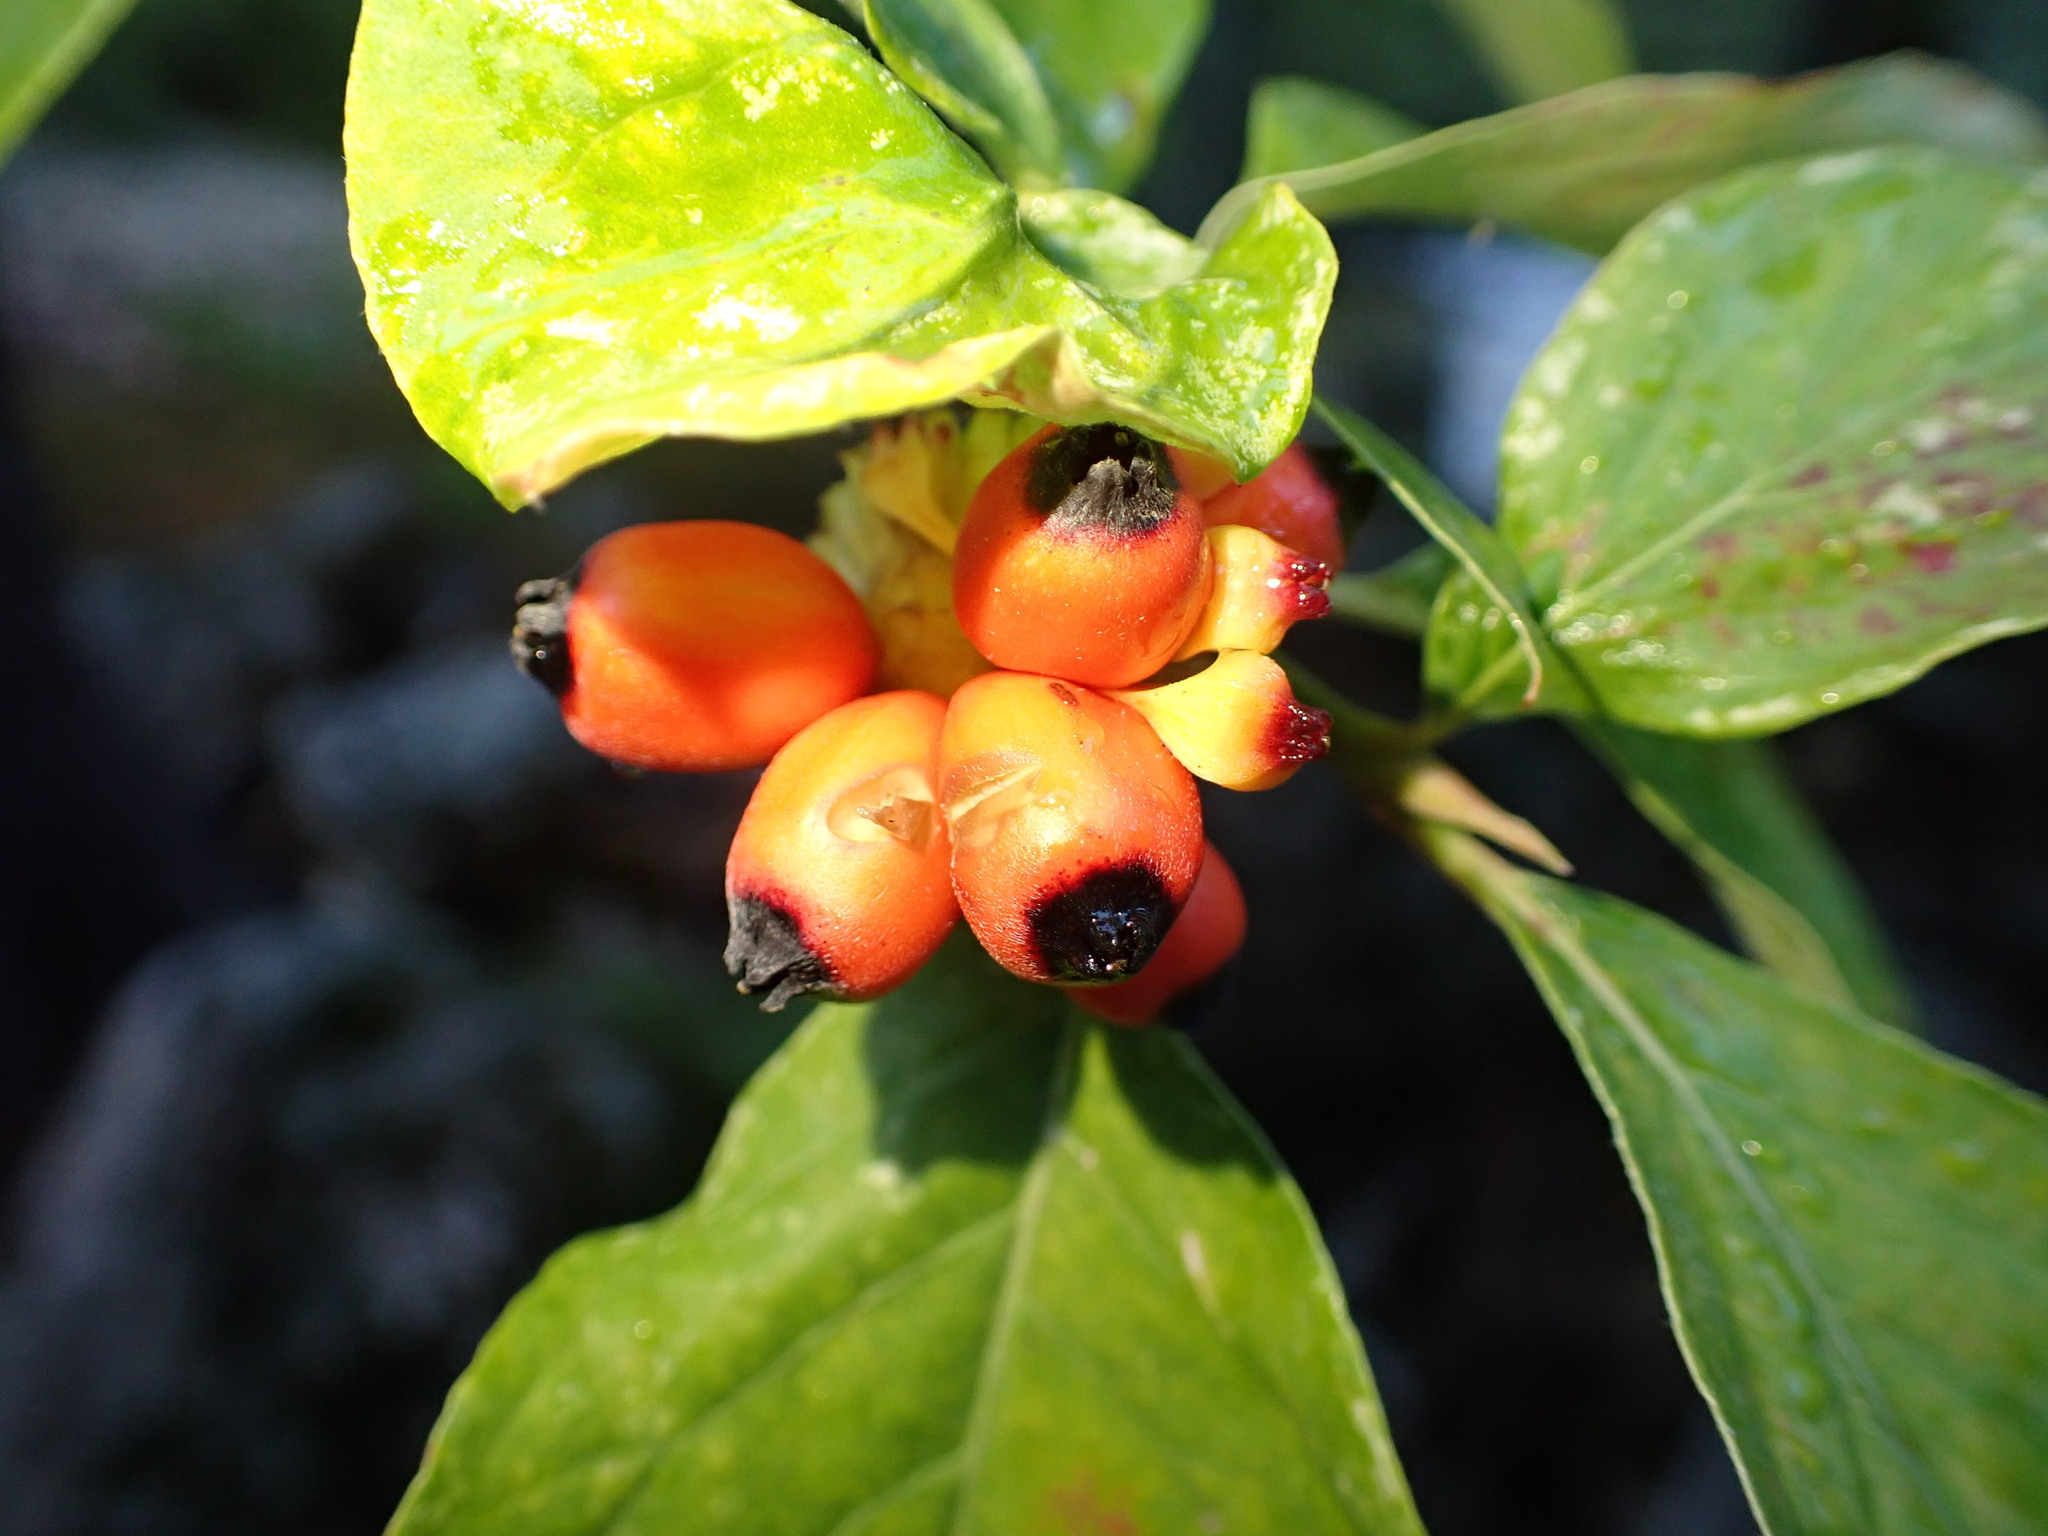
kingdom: Plantae
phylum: Tracheophyta
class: Magnoliopsida
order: Cornales
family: Cornaceae
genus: Cornus
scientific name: Cornus nuttallii
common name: Pacific dogwood
